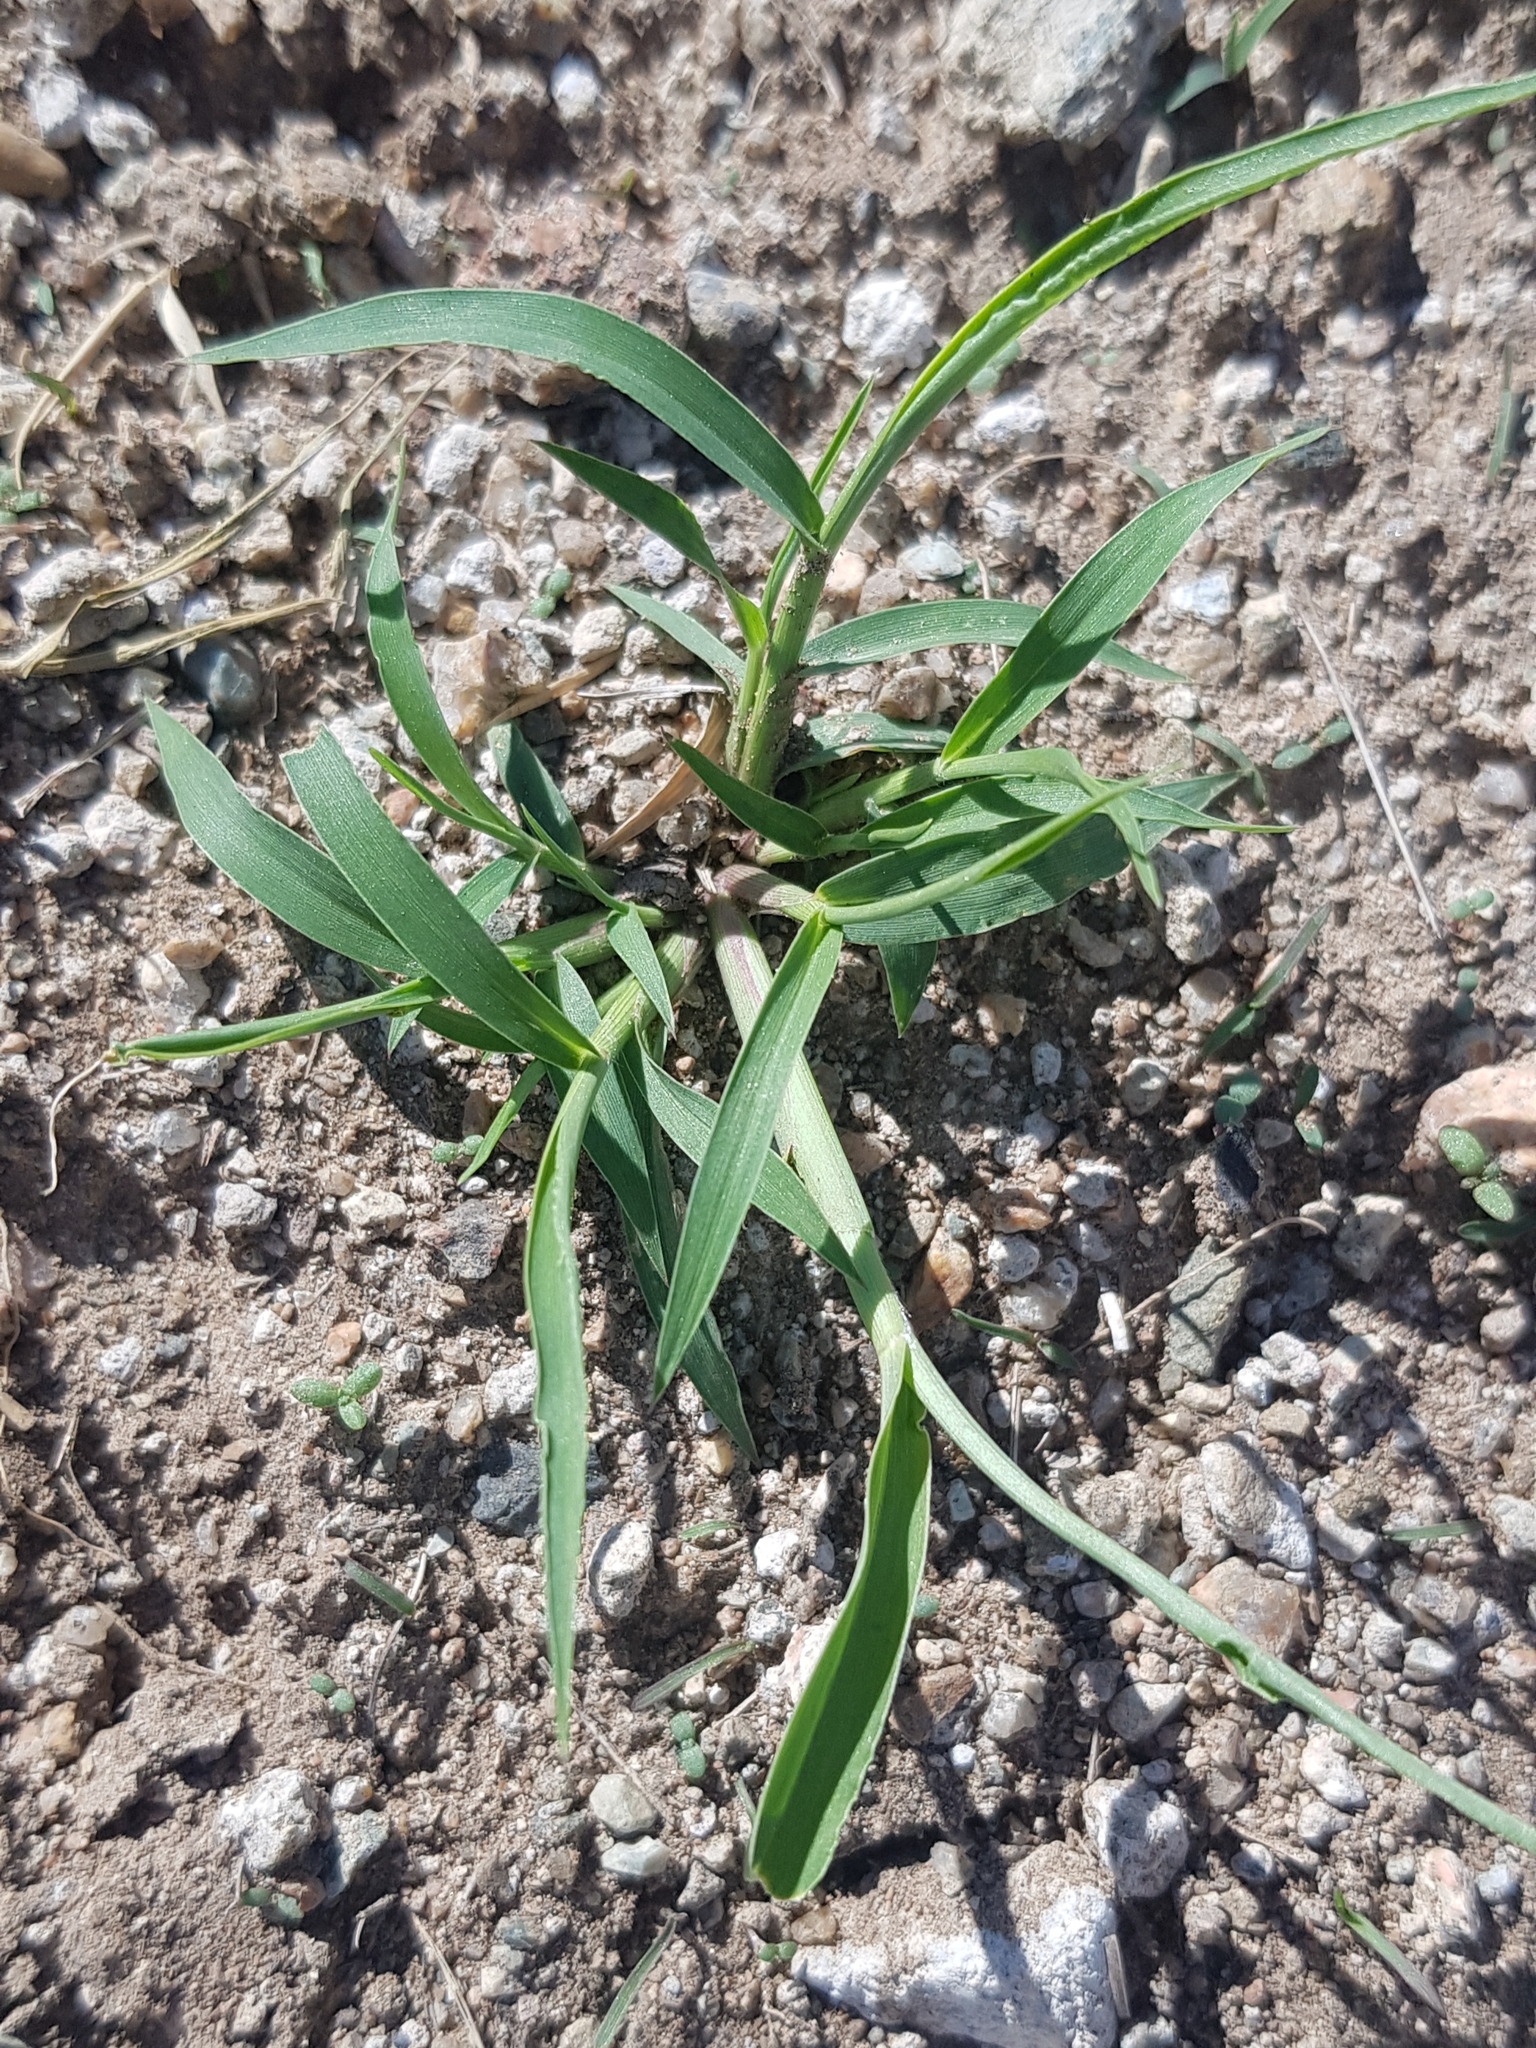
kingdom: Plantae
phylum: Tracheophyta
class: Liliopsida
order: Poales
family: Poaceae
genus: Setaria
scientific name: Setaria viridis
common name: Green bristlegrass
